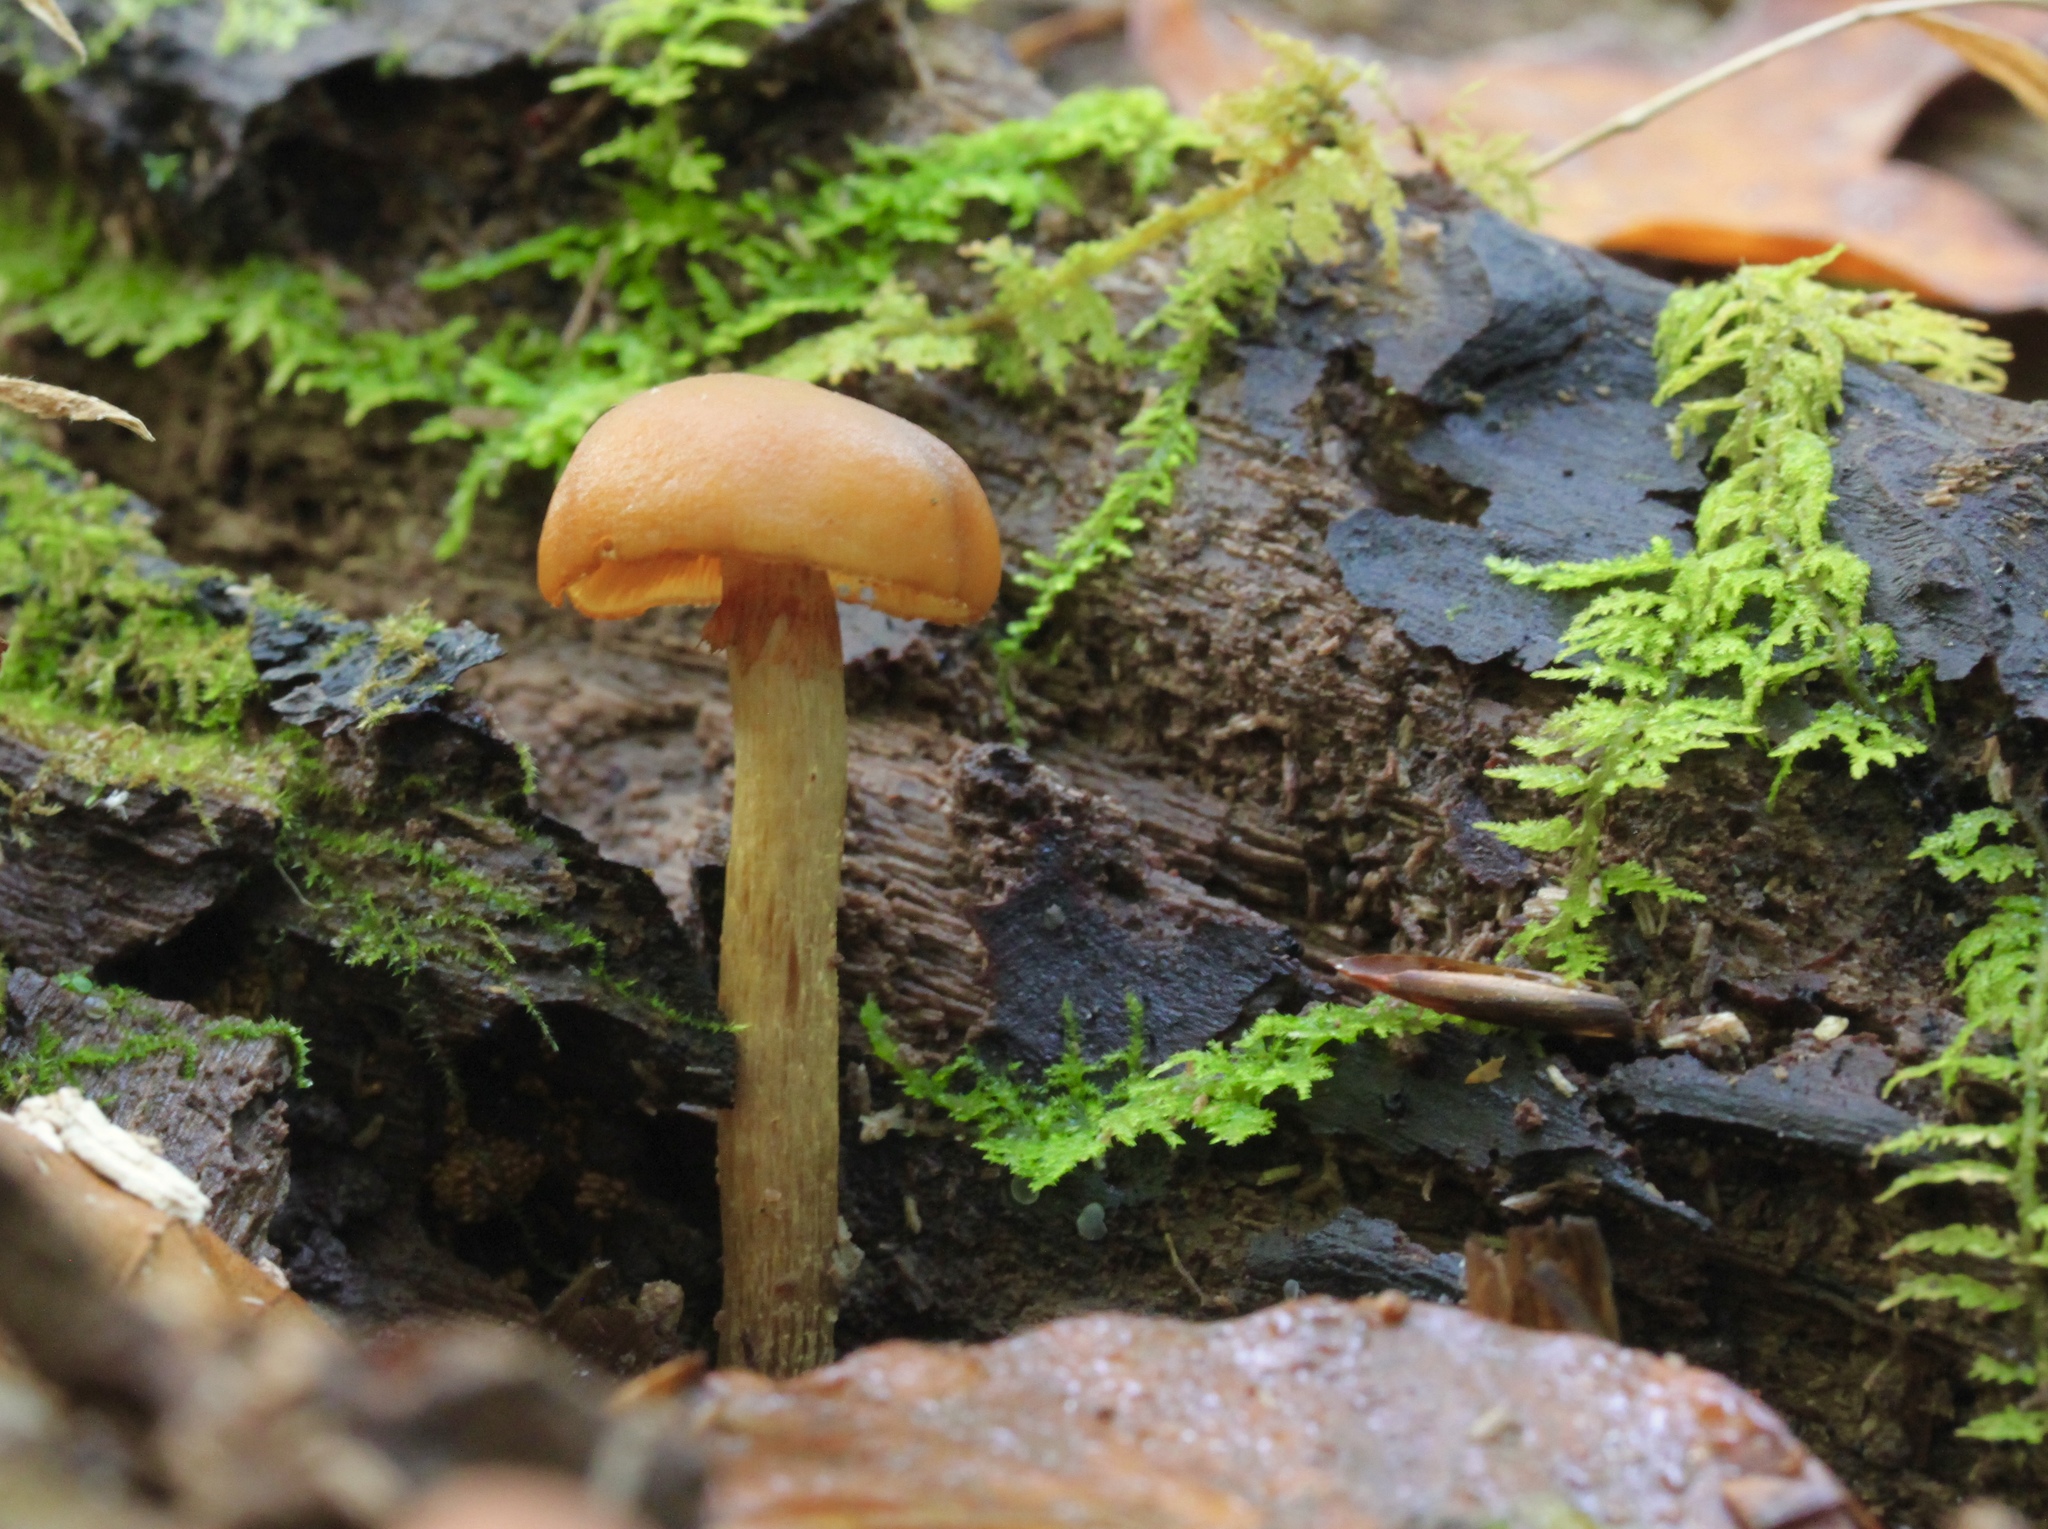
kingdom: Fungi
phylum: Basidiomycota
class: Agaricomycetes
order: Agaricales
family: Hymenogastraceae
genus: Galerina
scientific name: Galerina marginata
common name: Funeral bell
